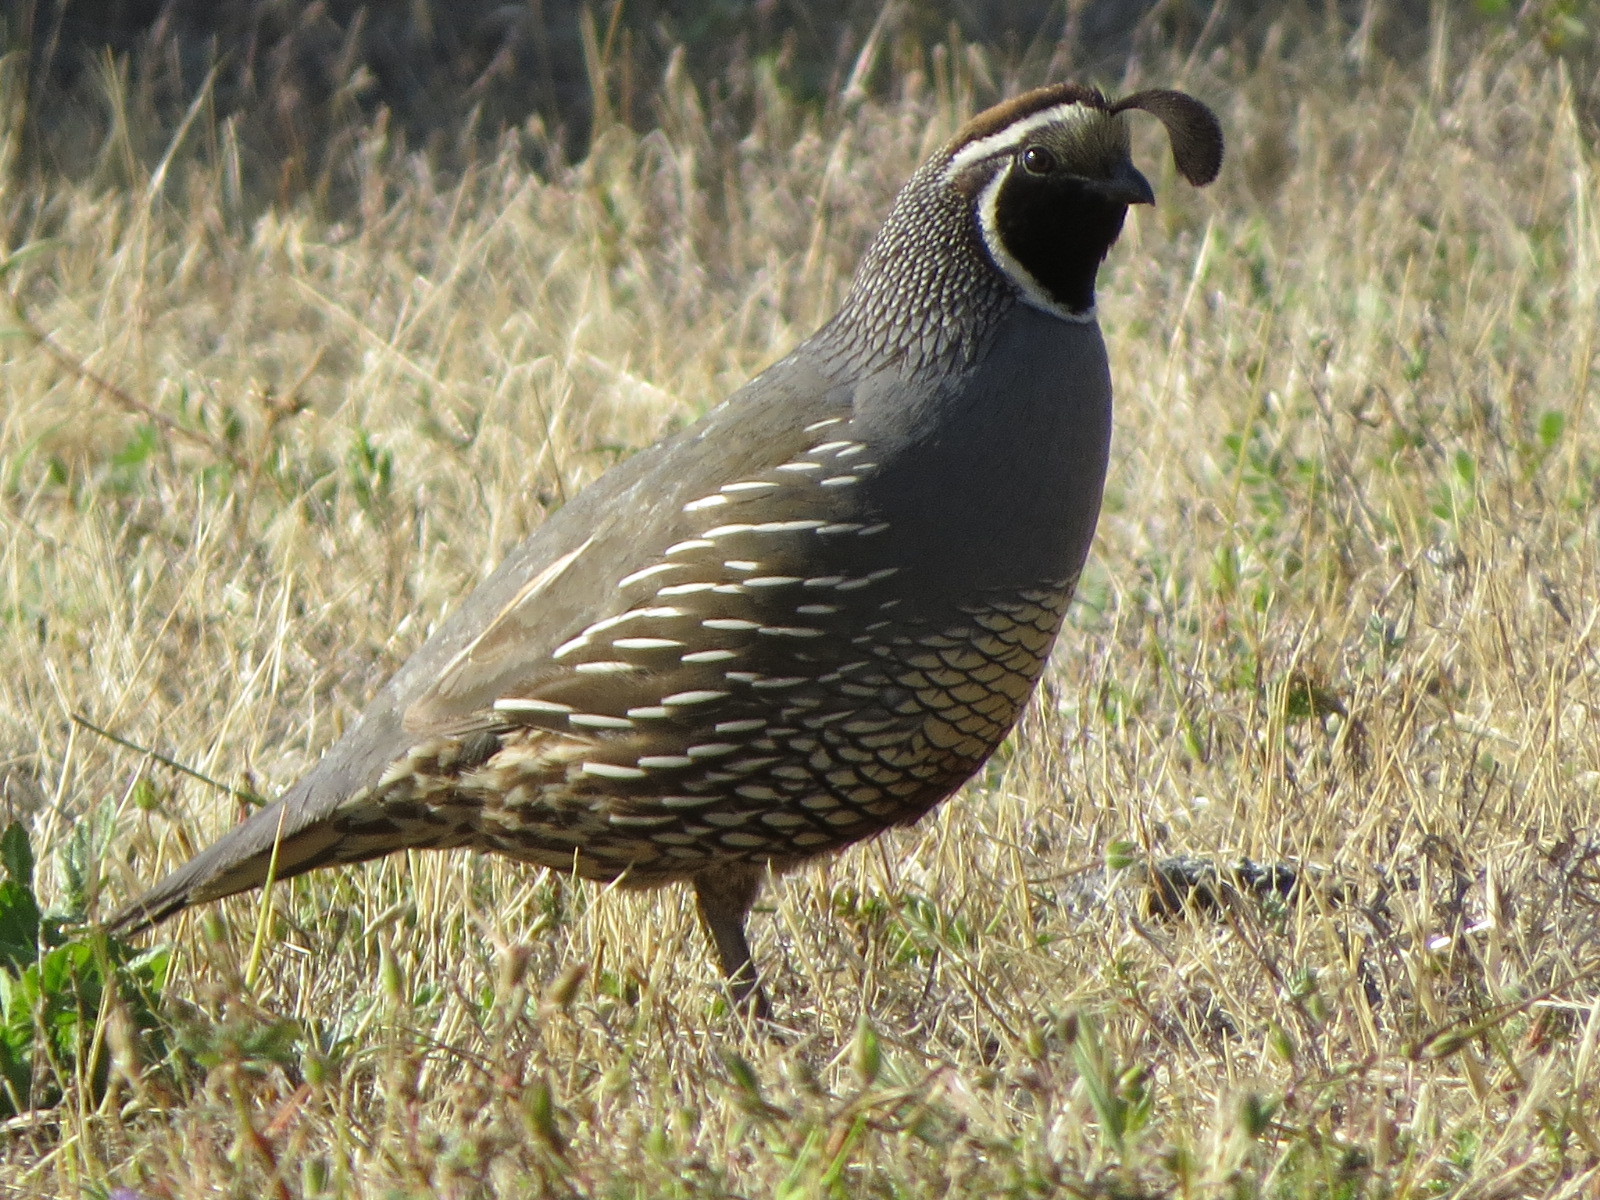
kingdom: Animalia
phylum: Chordata
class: Aves
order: Galliformes
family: Odontophoridae
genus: Callipepla
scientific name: Callipepla californica
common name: California quail
